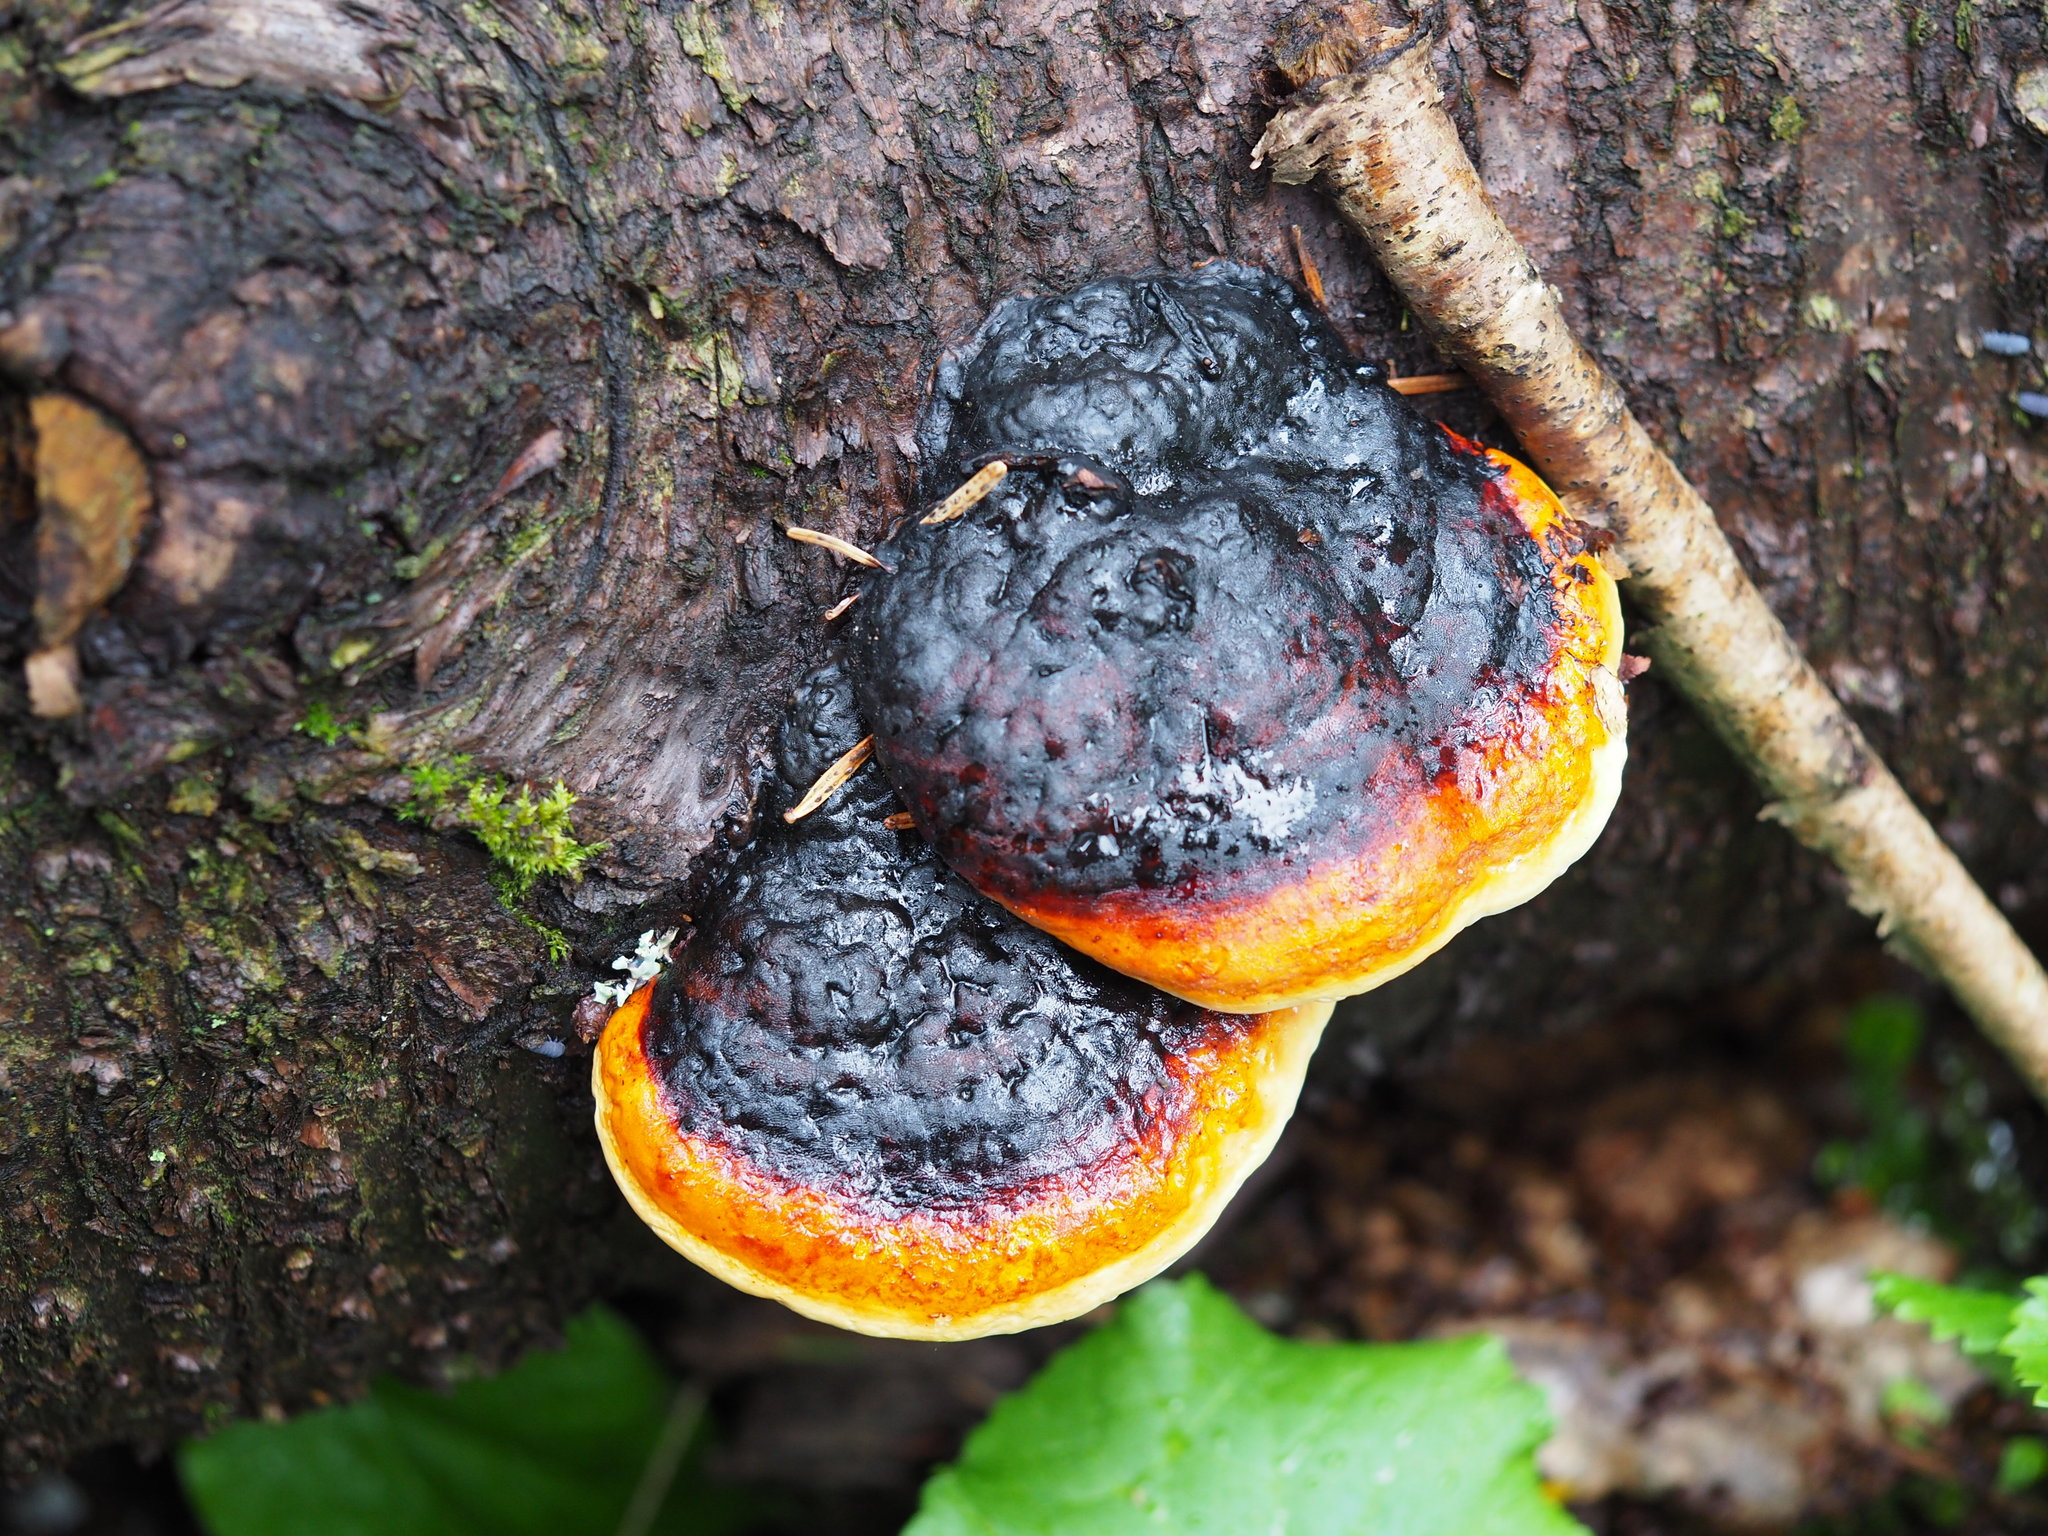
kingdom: Fungi
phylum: Basidiomycota
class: Agaricomycetes
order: Polyporales
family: Fomitopsidaceae
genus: Fomitopsis
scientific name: Fomitopsis pinicola
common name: Red-belted bracket
